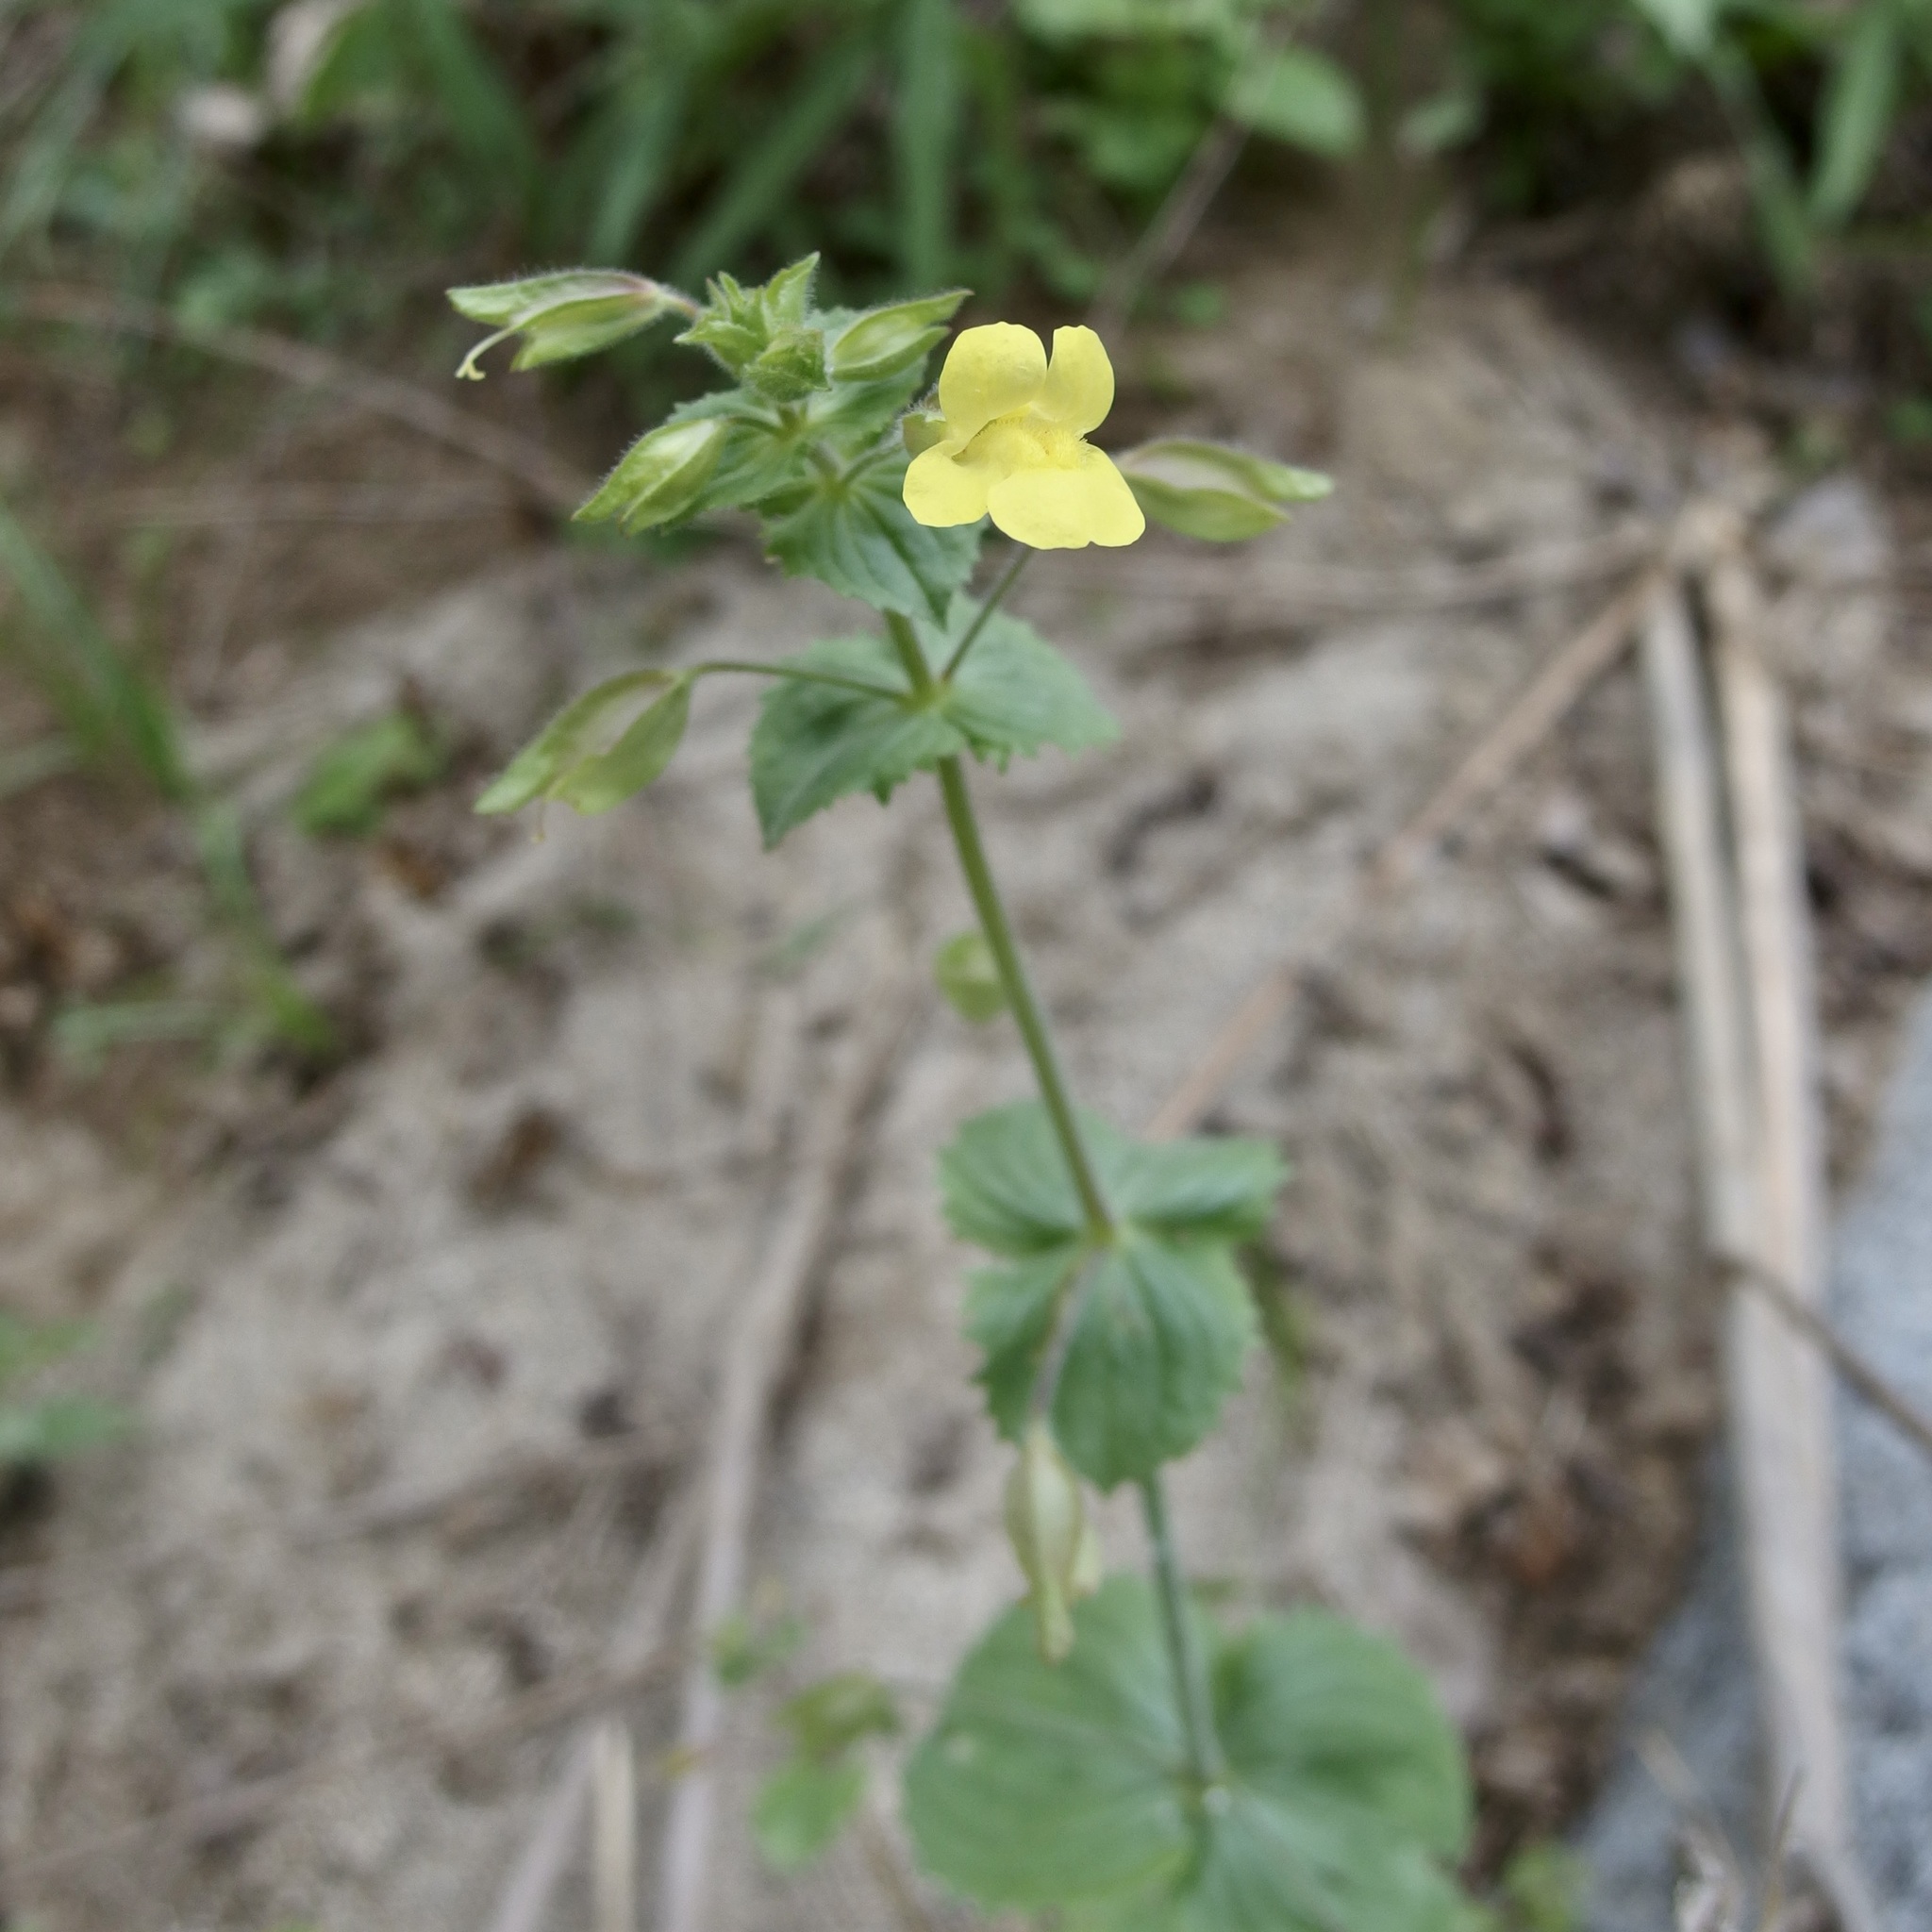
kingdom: Plantae
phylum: Tracheophyta
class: Magnoliopsida
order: Lamiales
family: Phrymaceae
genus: Erythranthe
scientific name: Erythranthe lagunensis
